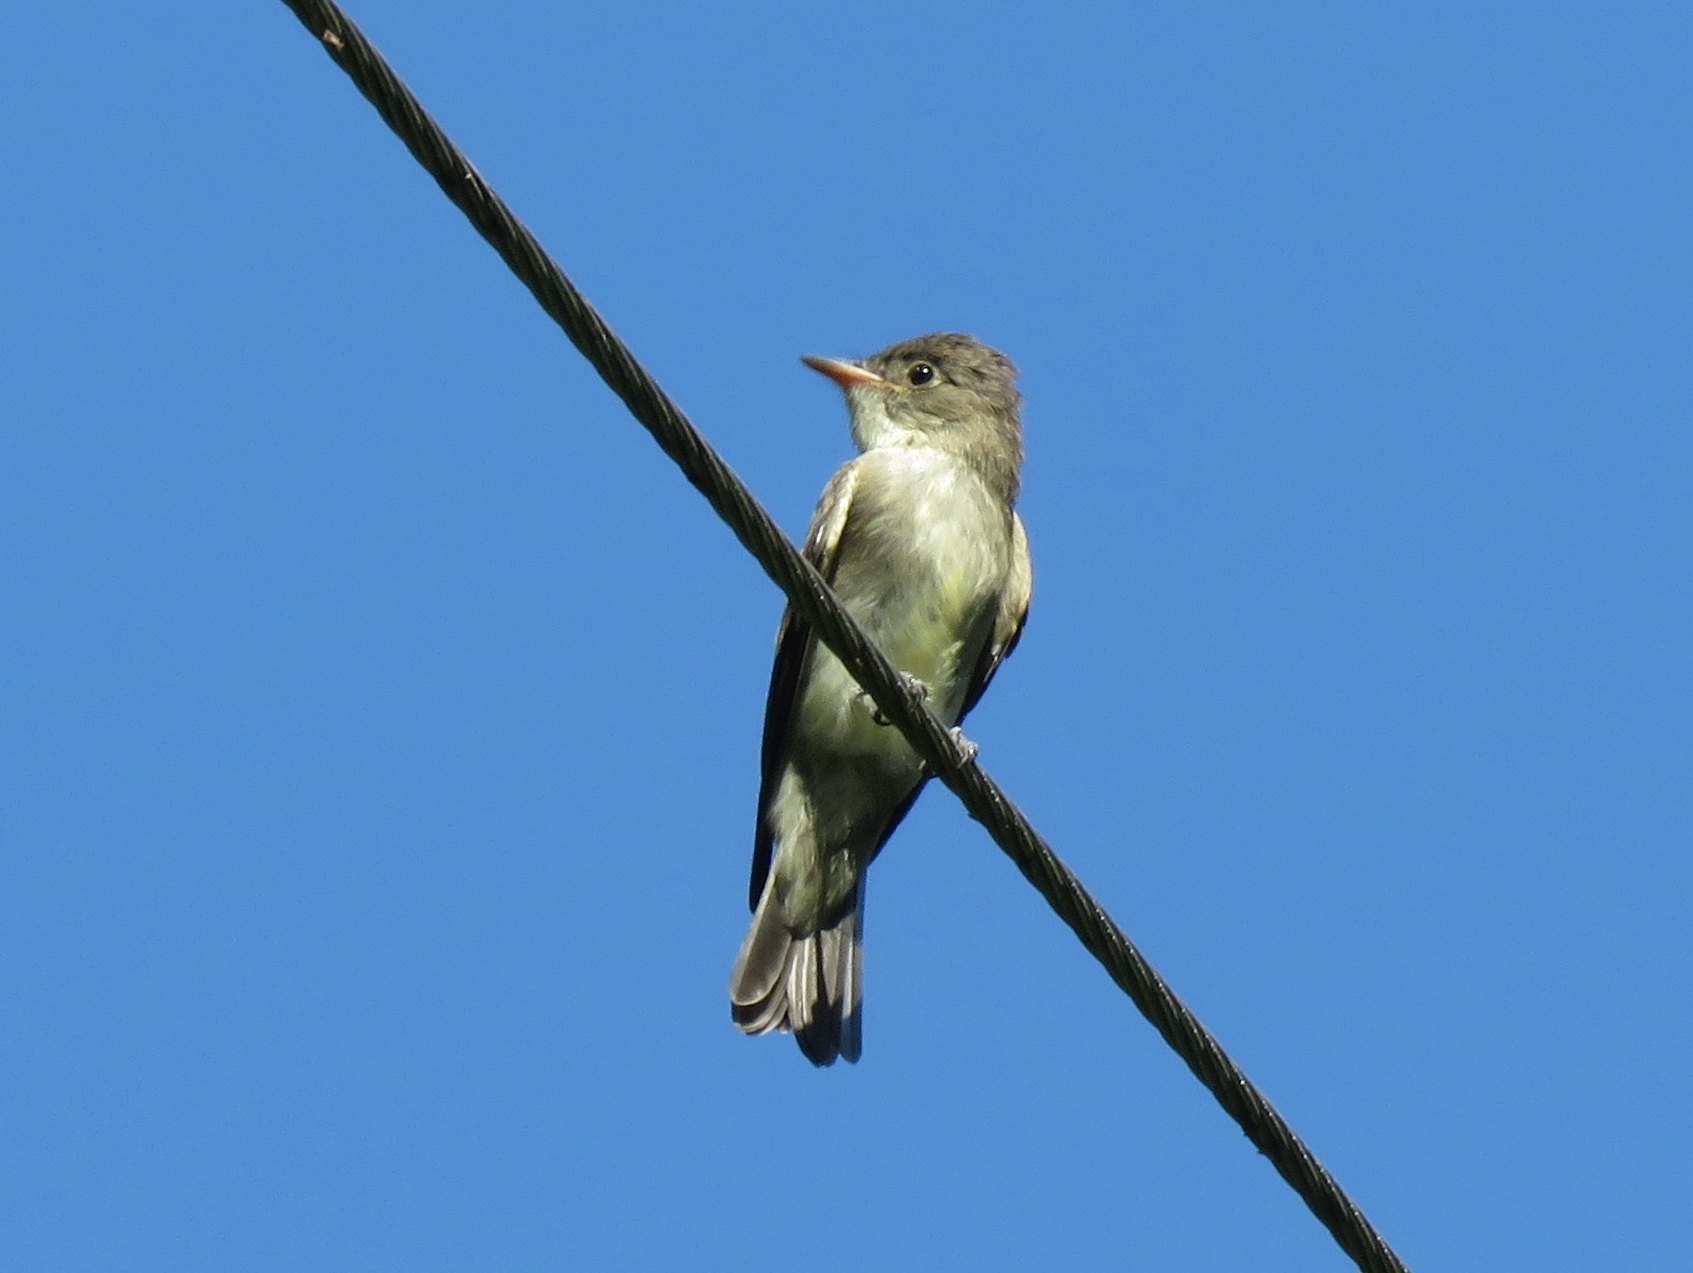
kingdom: Animalia
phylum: Chordata
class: Aves
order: Passeriformes
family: Tyrannidae
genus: Contopus
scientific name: Contopus virens
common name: Eastern wood-pewee
